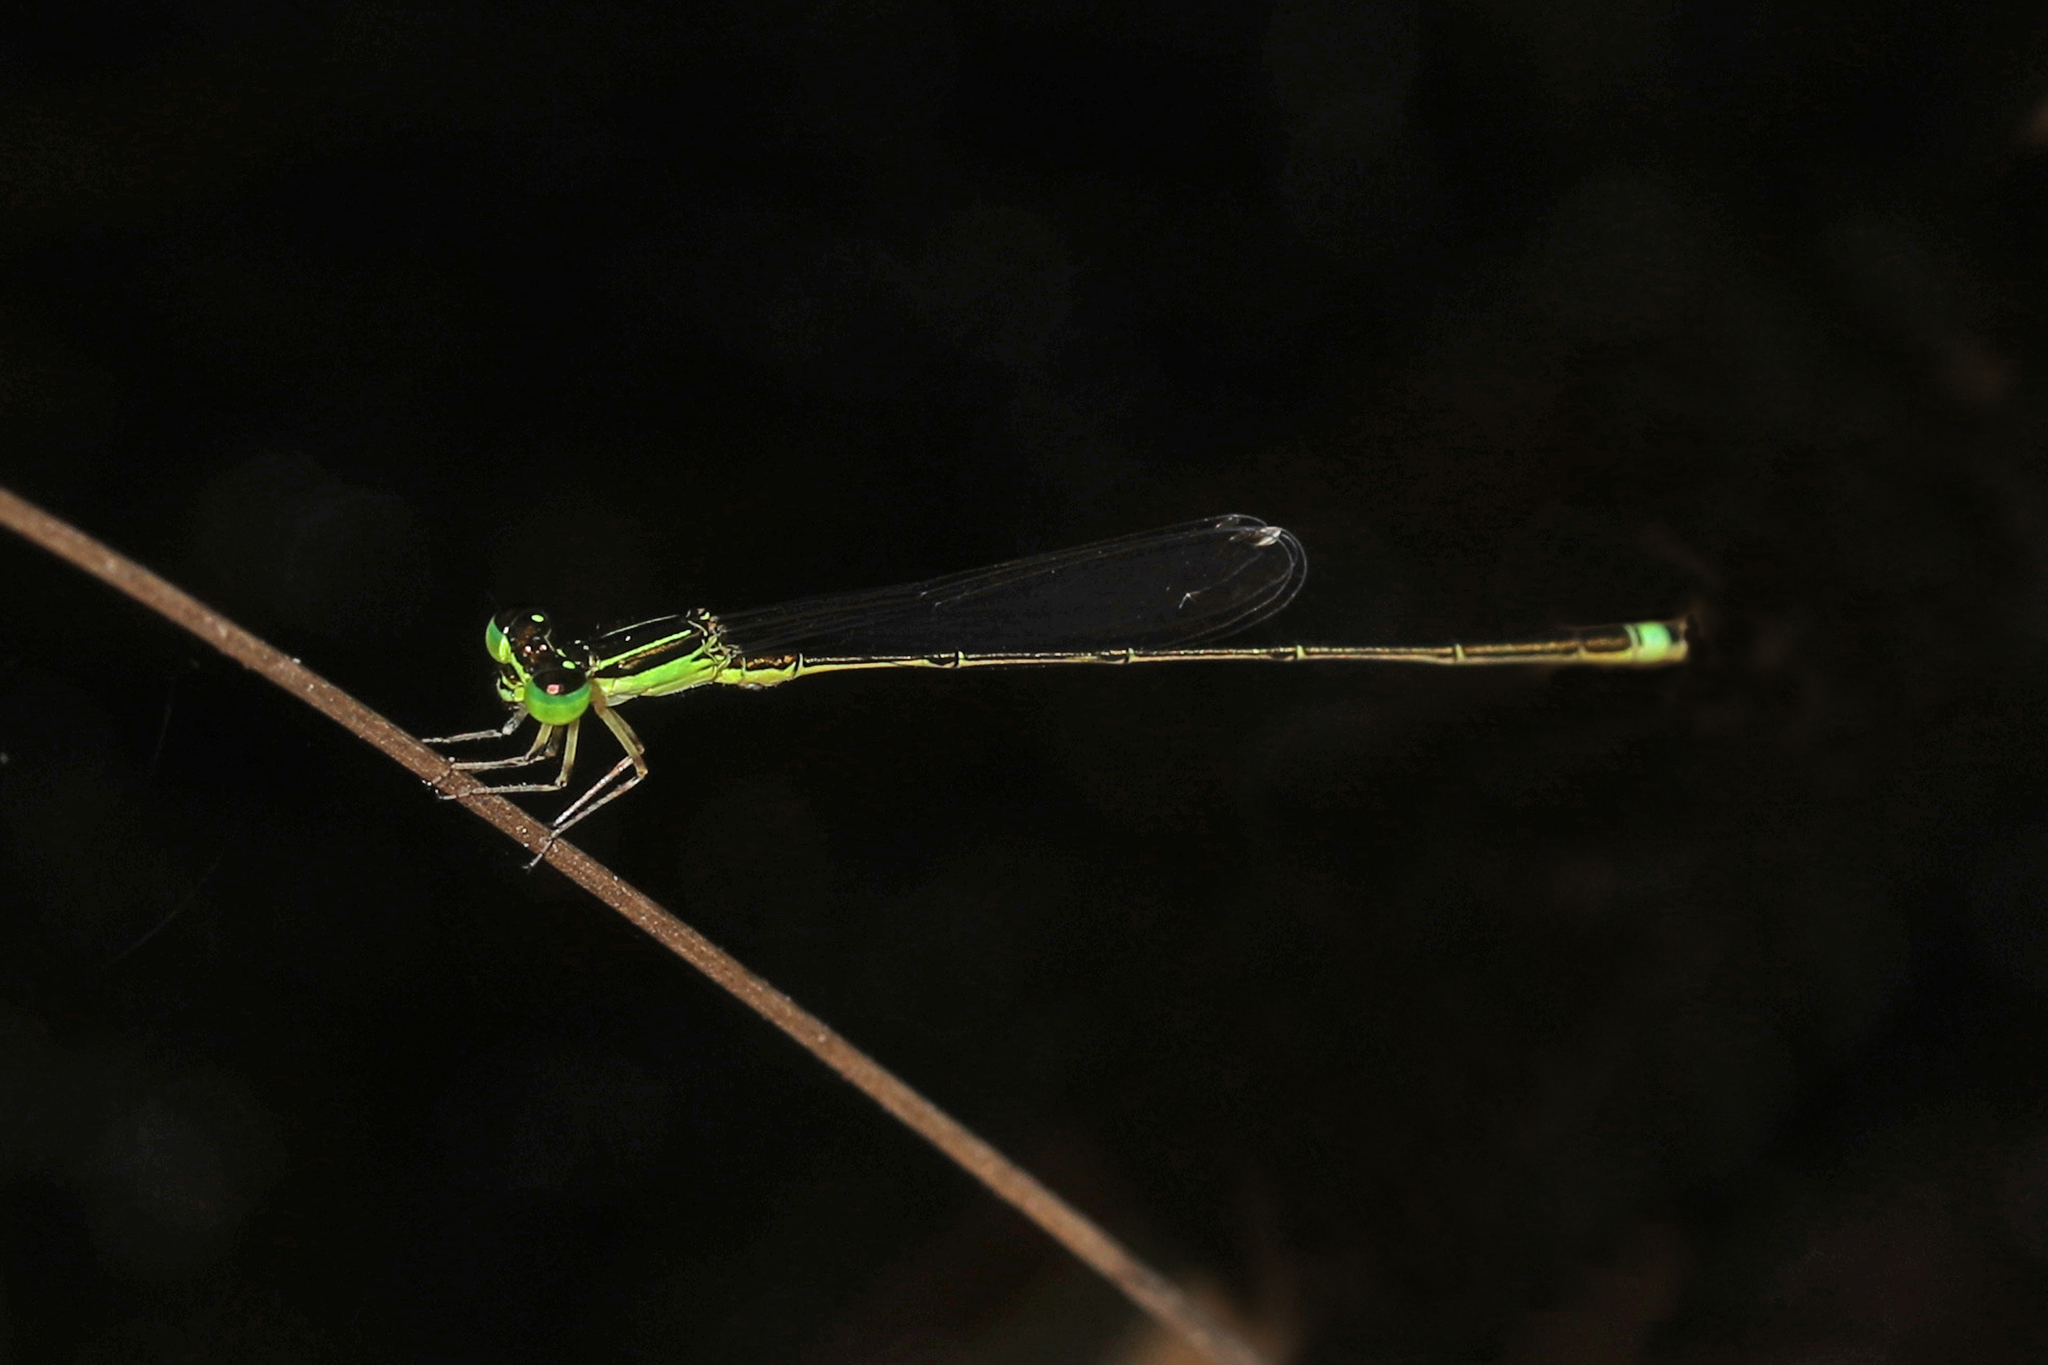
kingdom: Animalia
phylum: Arthropoda
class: Insecta
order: Odonata
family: Coenagrionidae
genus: Ischnura
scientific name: Ischnura prognata
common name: Furtive forktail
